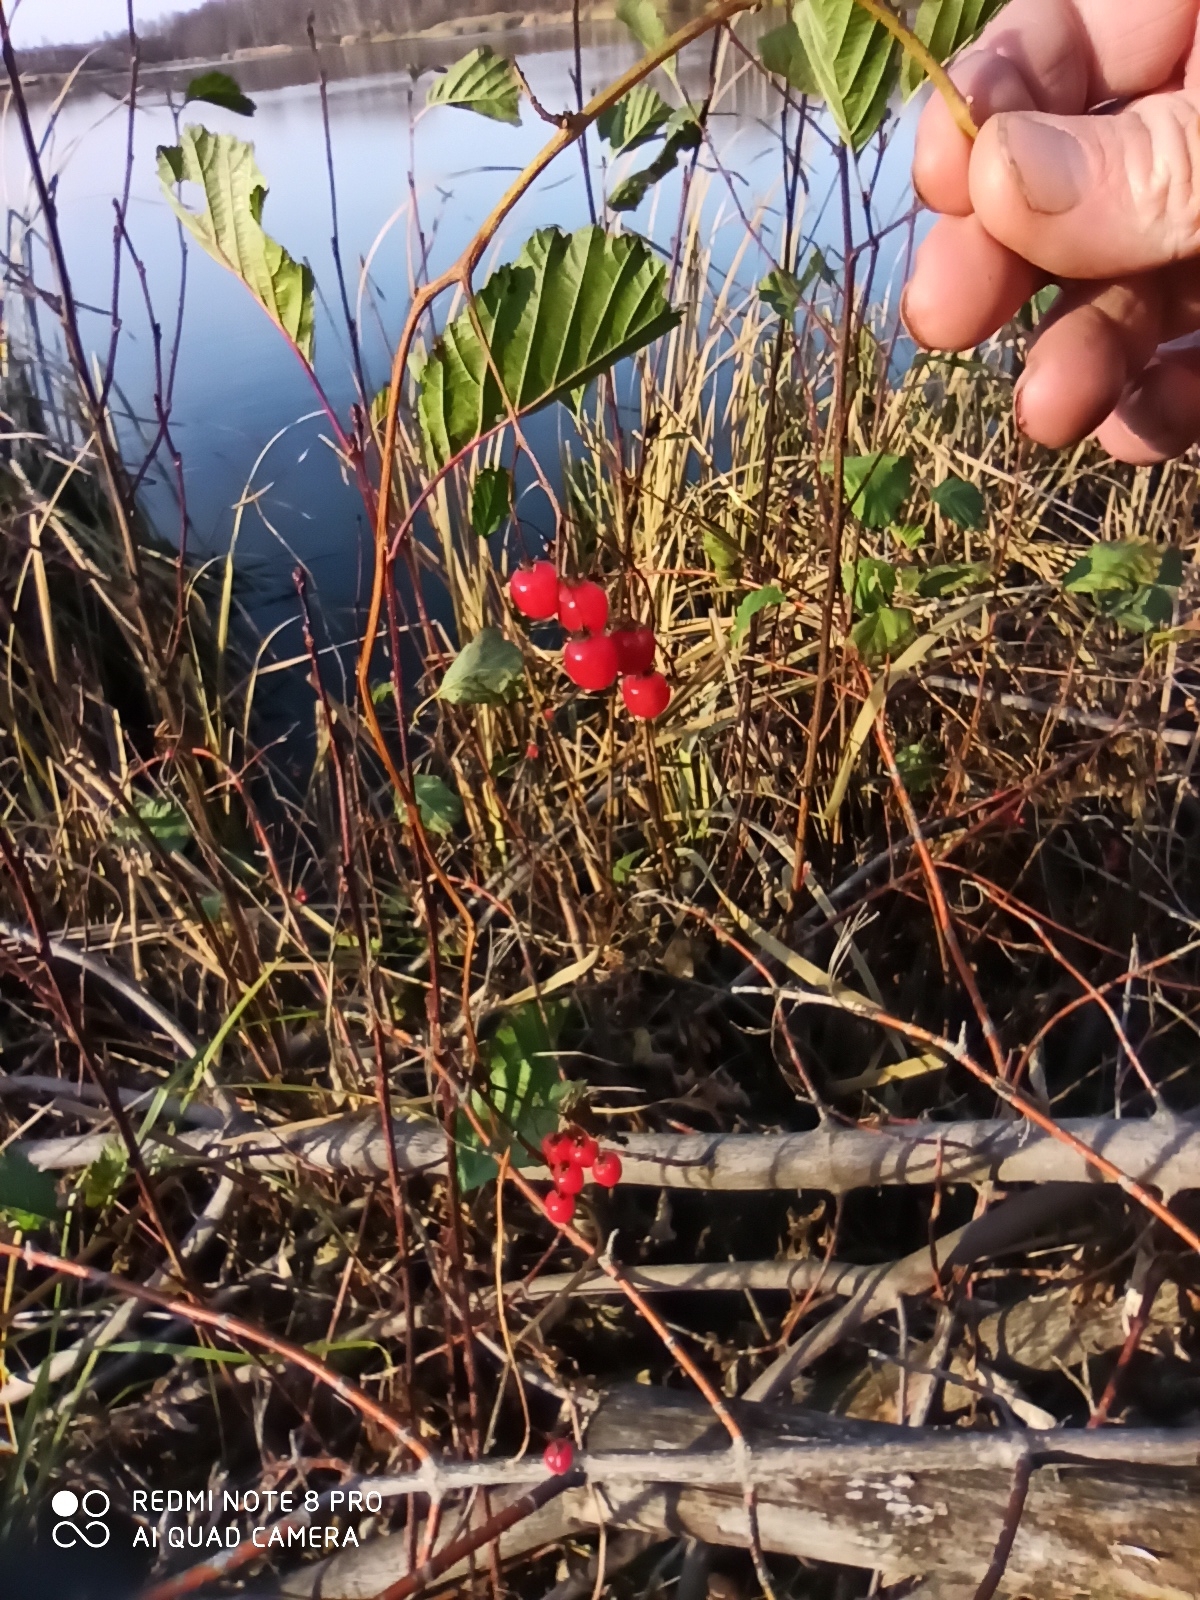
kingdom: Plantae
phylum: Tracheophyta
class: Magnoliopsida
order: Solanales
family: Solanaceae
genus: Solanum
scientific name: Solanum dulcamara
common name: Climbing nightshade
